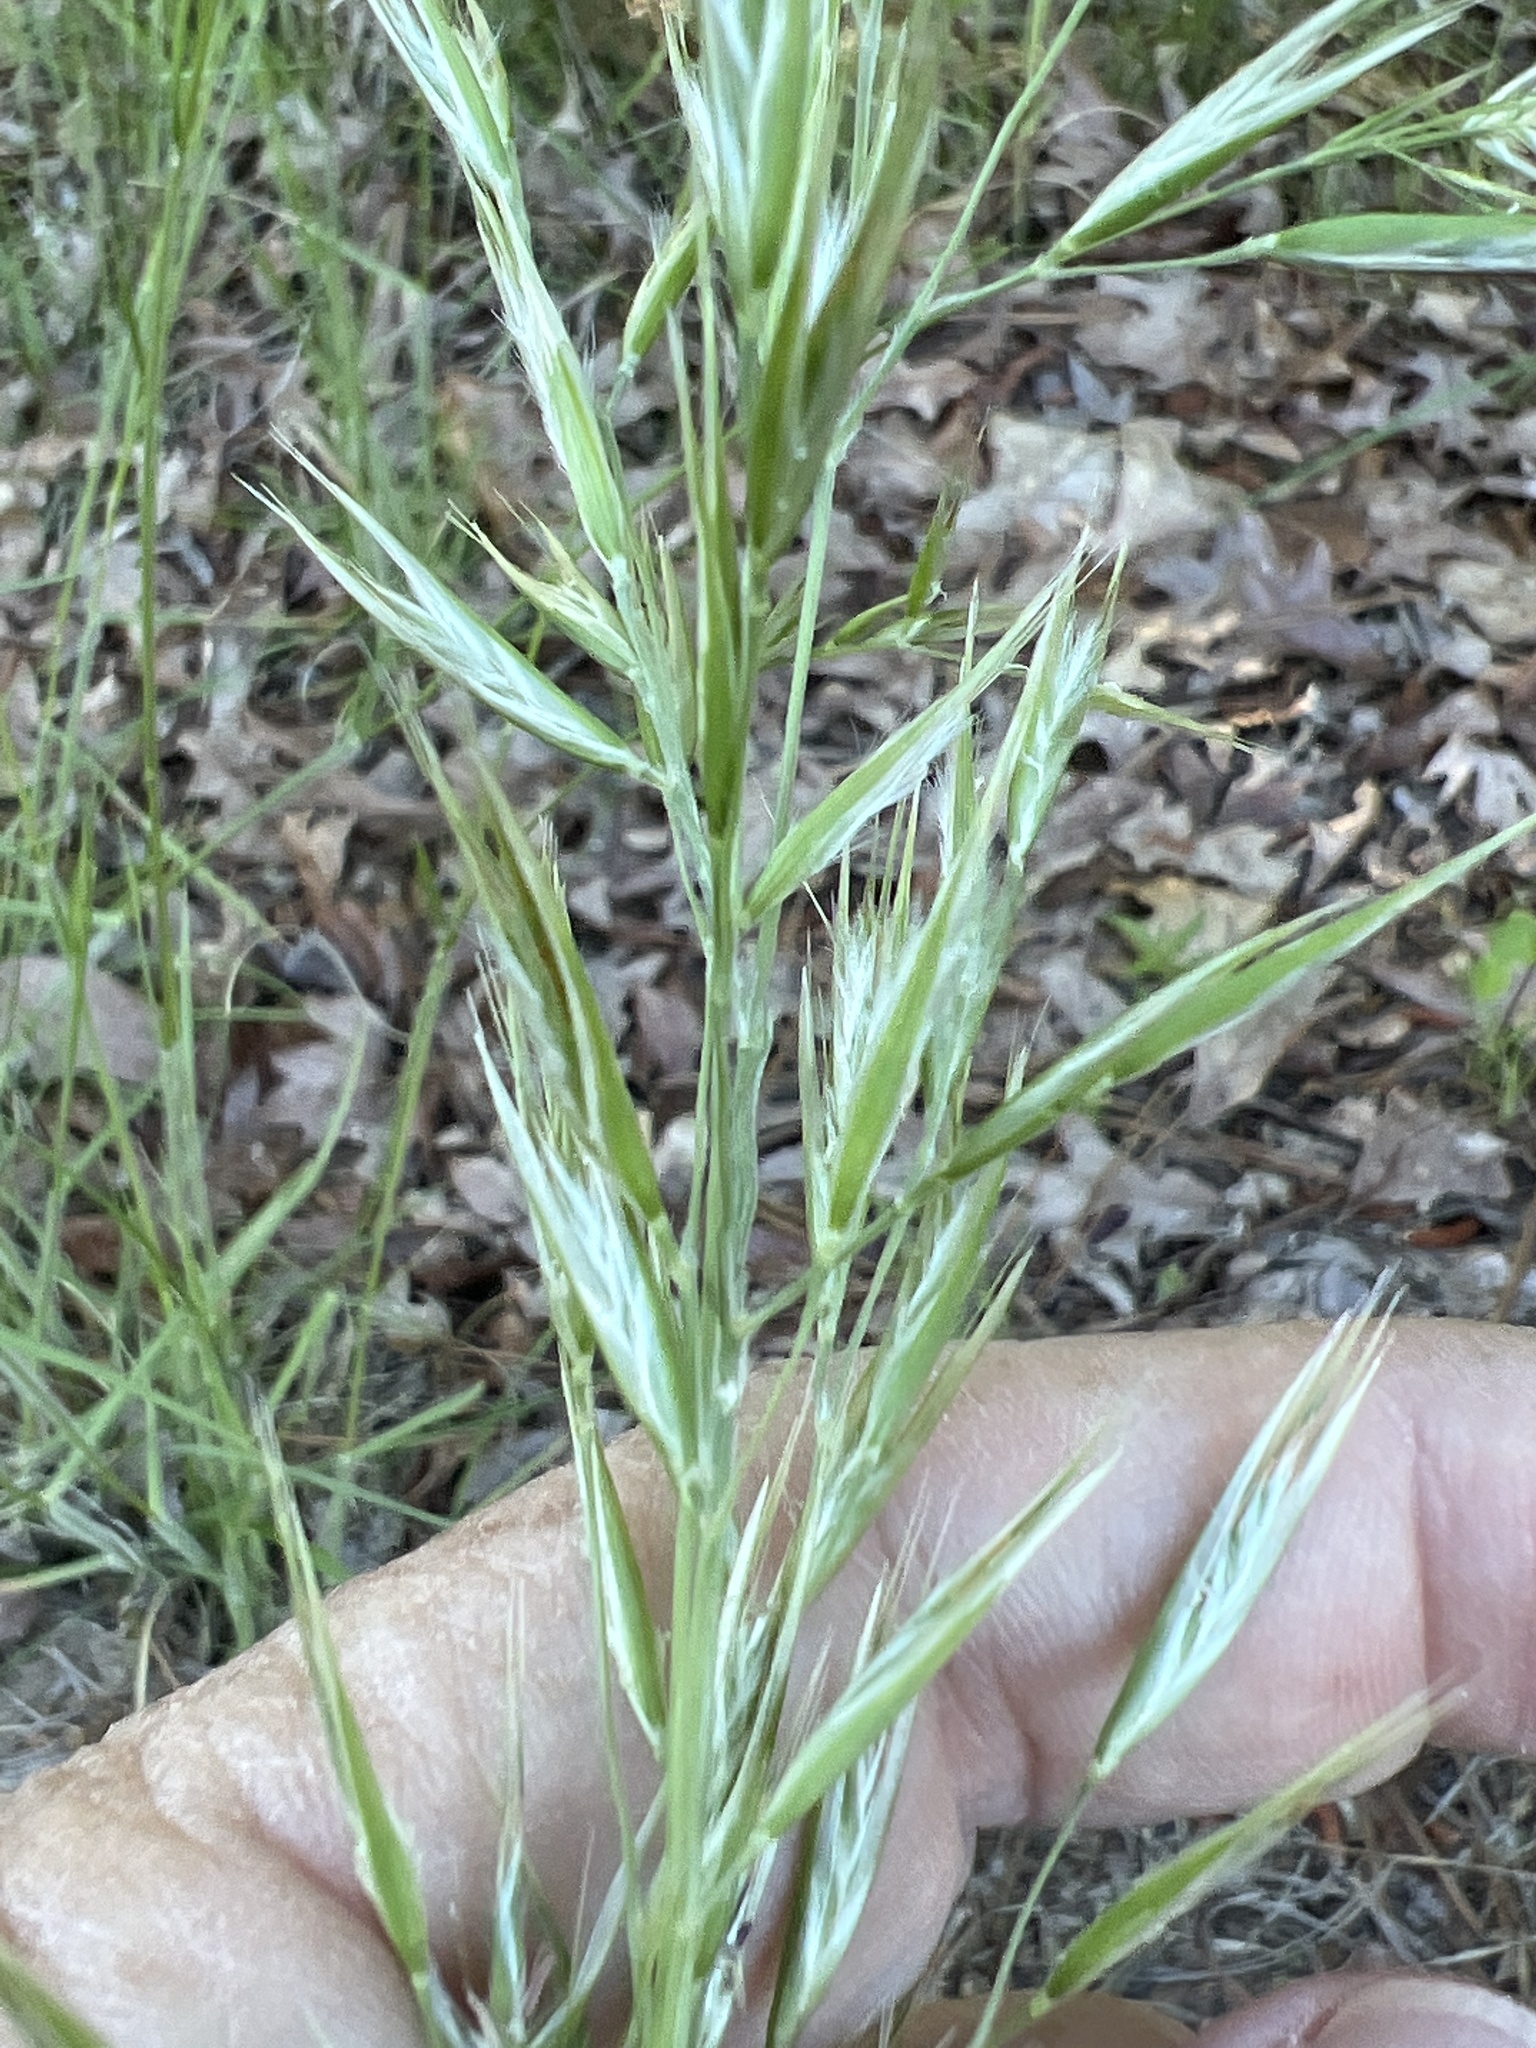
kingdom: Plantae
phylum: Tracheophyta
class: Liliopsida
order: Poales
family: Poaceae
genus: Danthonia
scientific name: Danthonia sericea
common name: Downy danthonia
